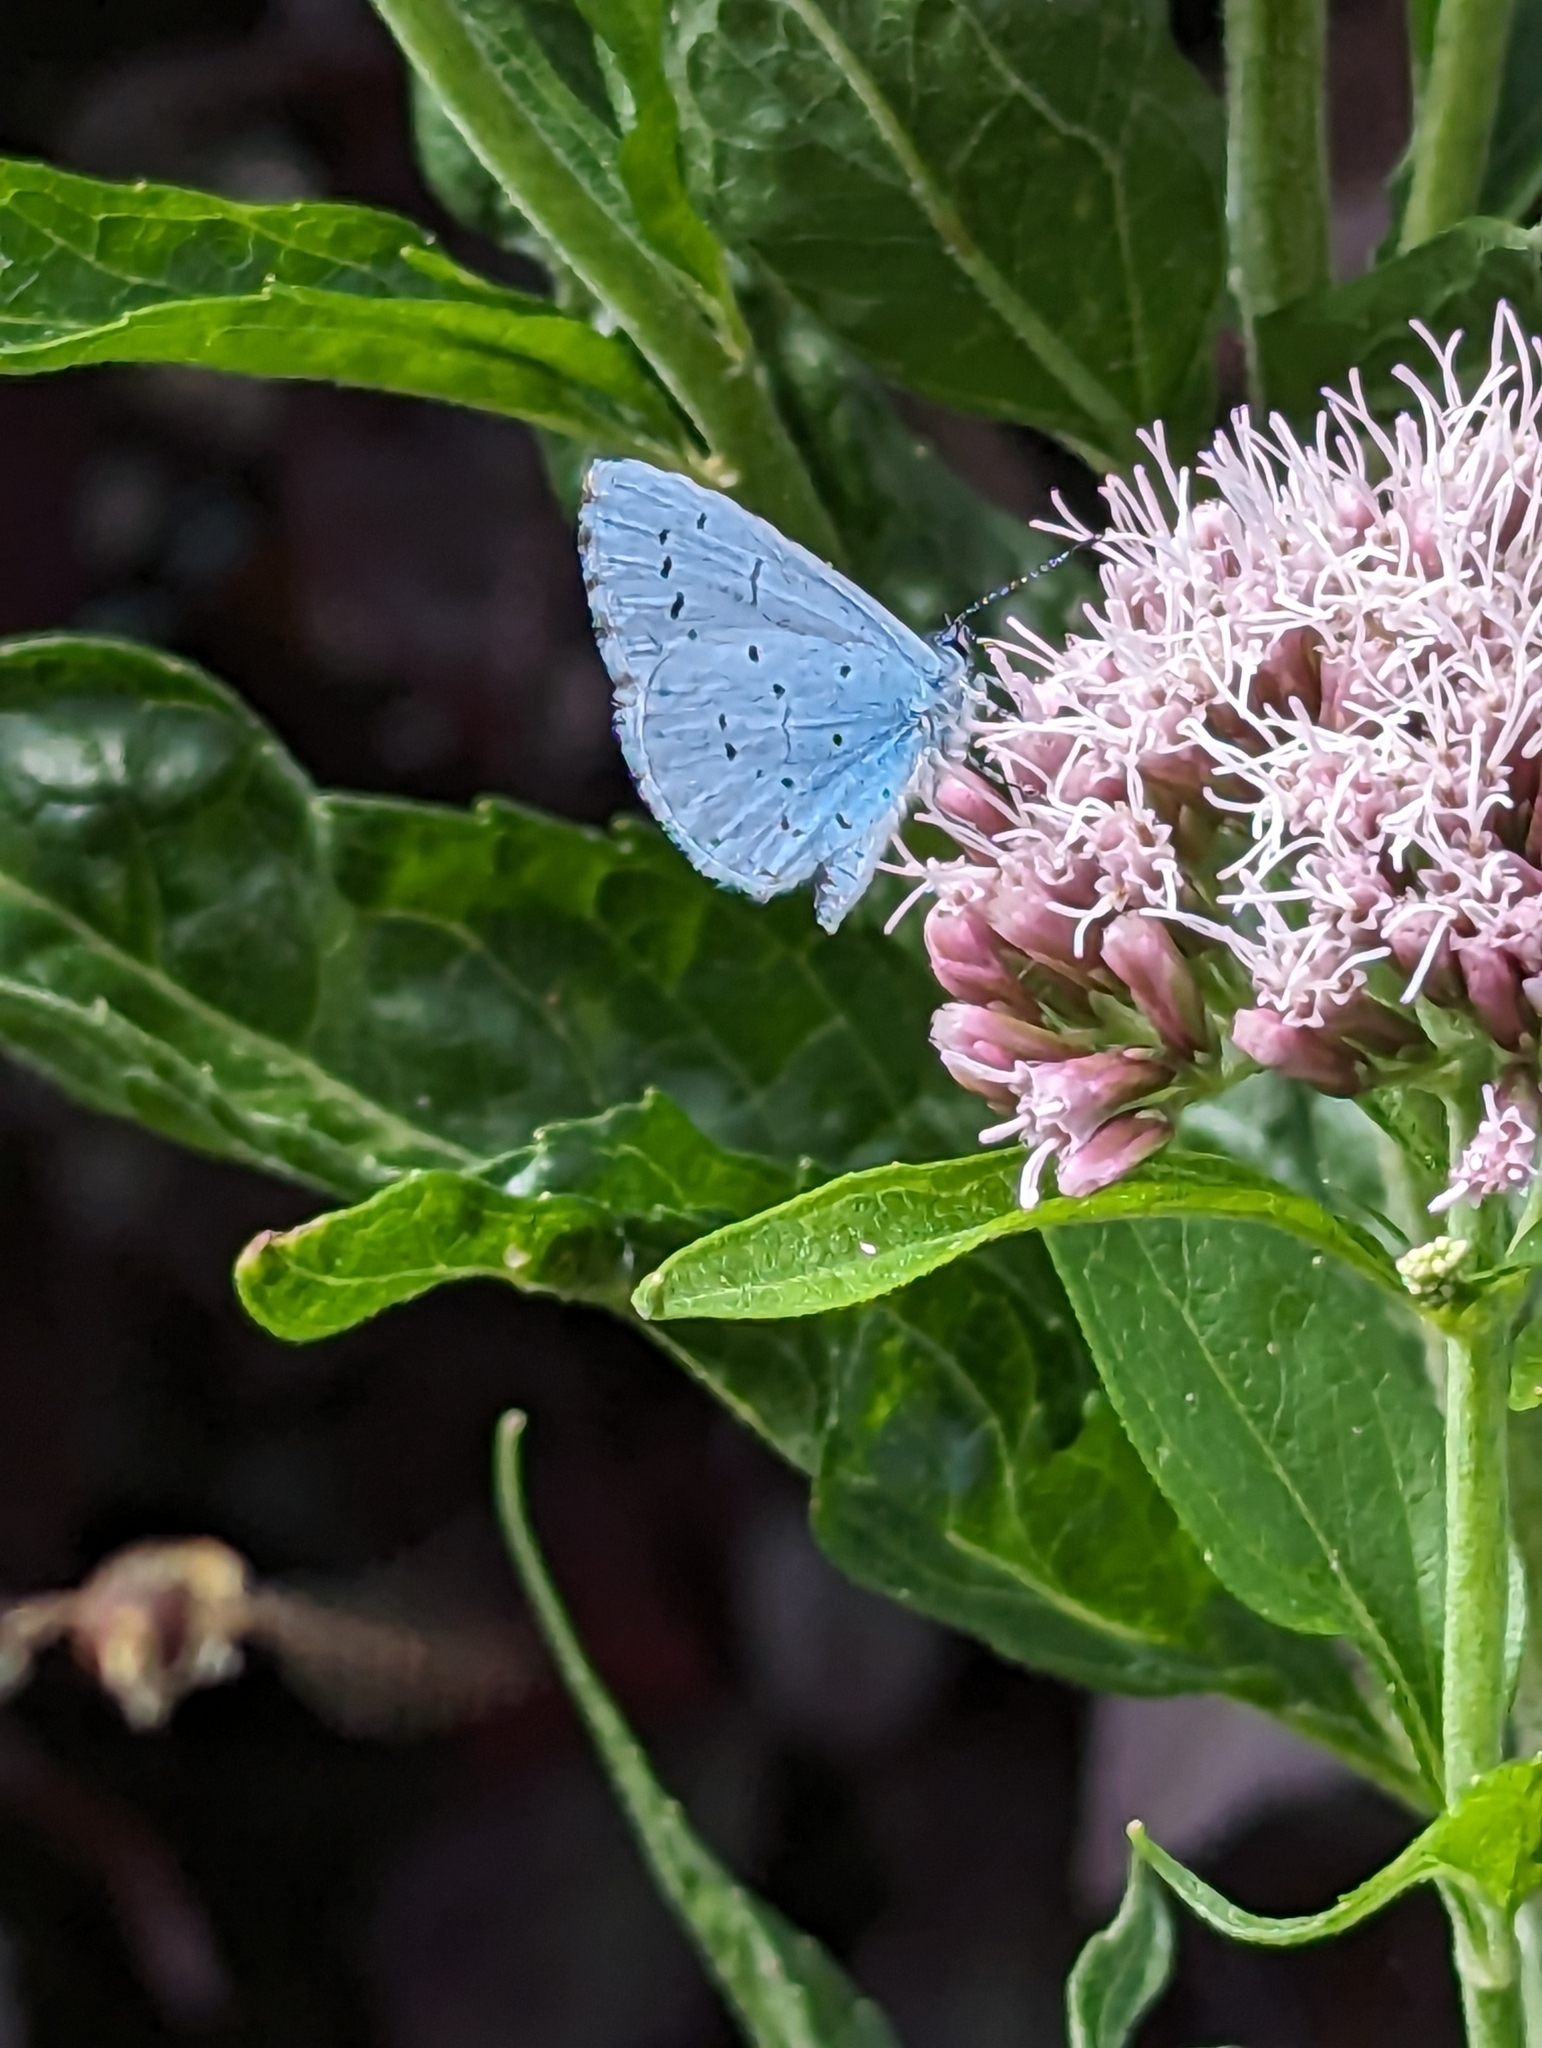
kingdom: Animalia
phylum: Arthropoda
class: Insecta
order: Lepidoptera
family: Lycaenidae
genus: Celastrina
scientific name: Celastrina argiolus
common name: Holly blue
